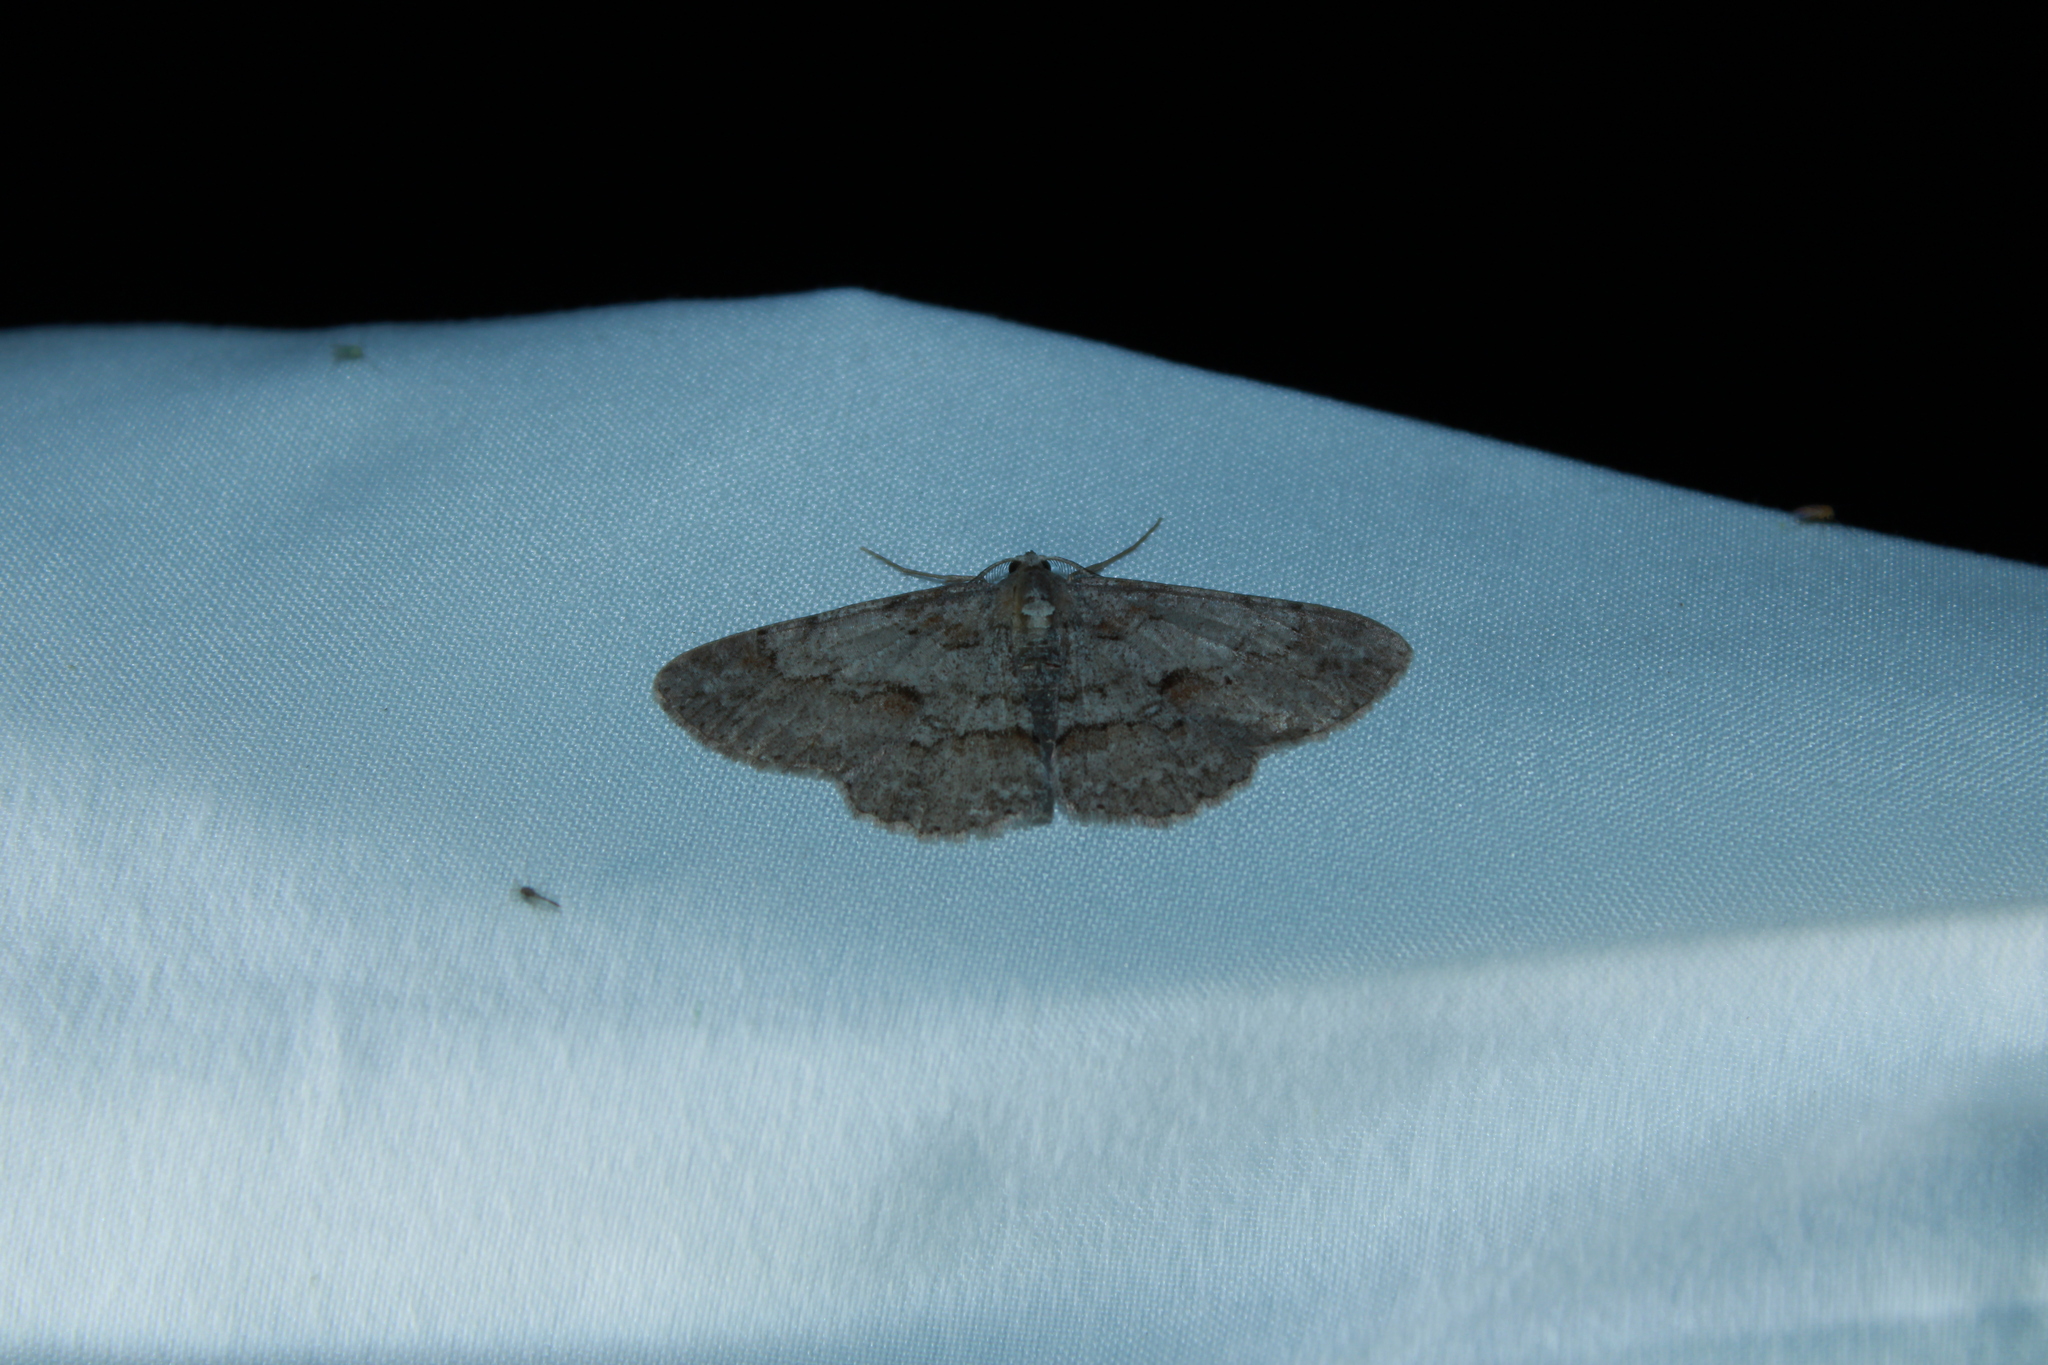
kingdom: Animalia
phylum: Arthropoda
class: Insecta
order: Lepidoptera
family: Geometridae
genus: Iridopsis
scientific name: Iridopsis vellivolata
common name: Large purplish gray
